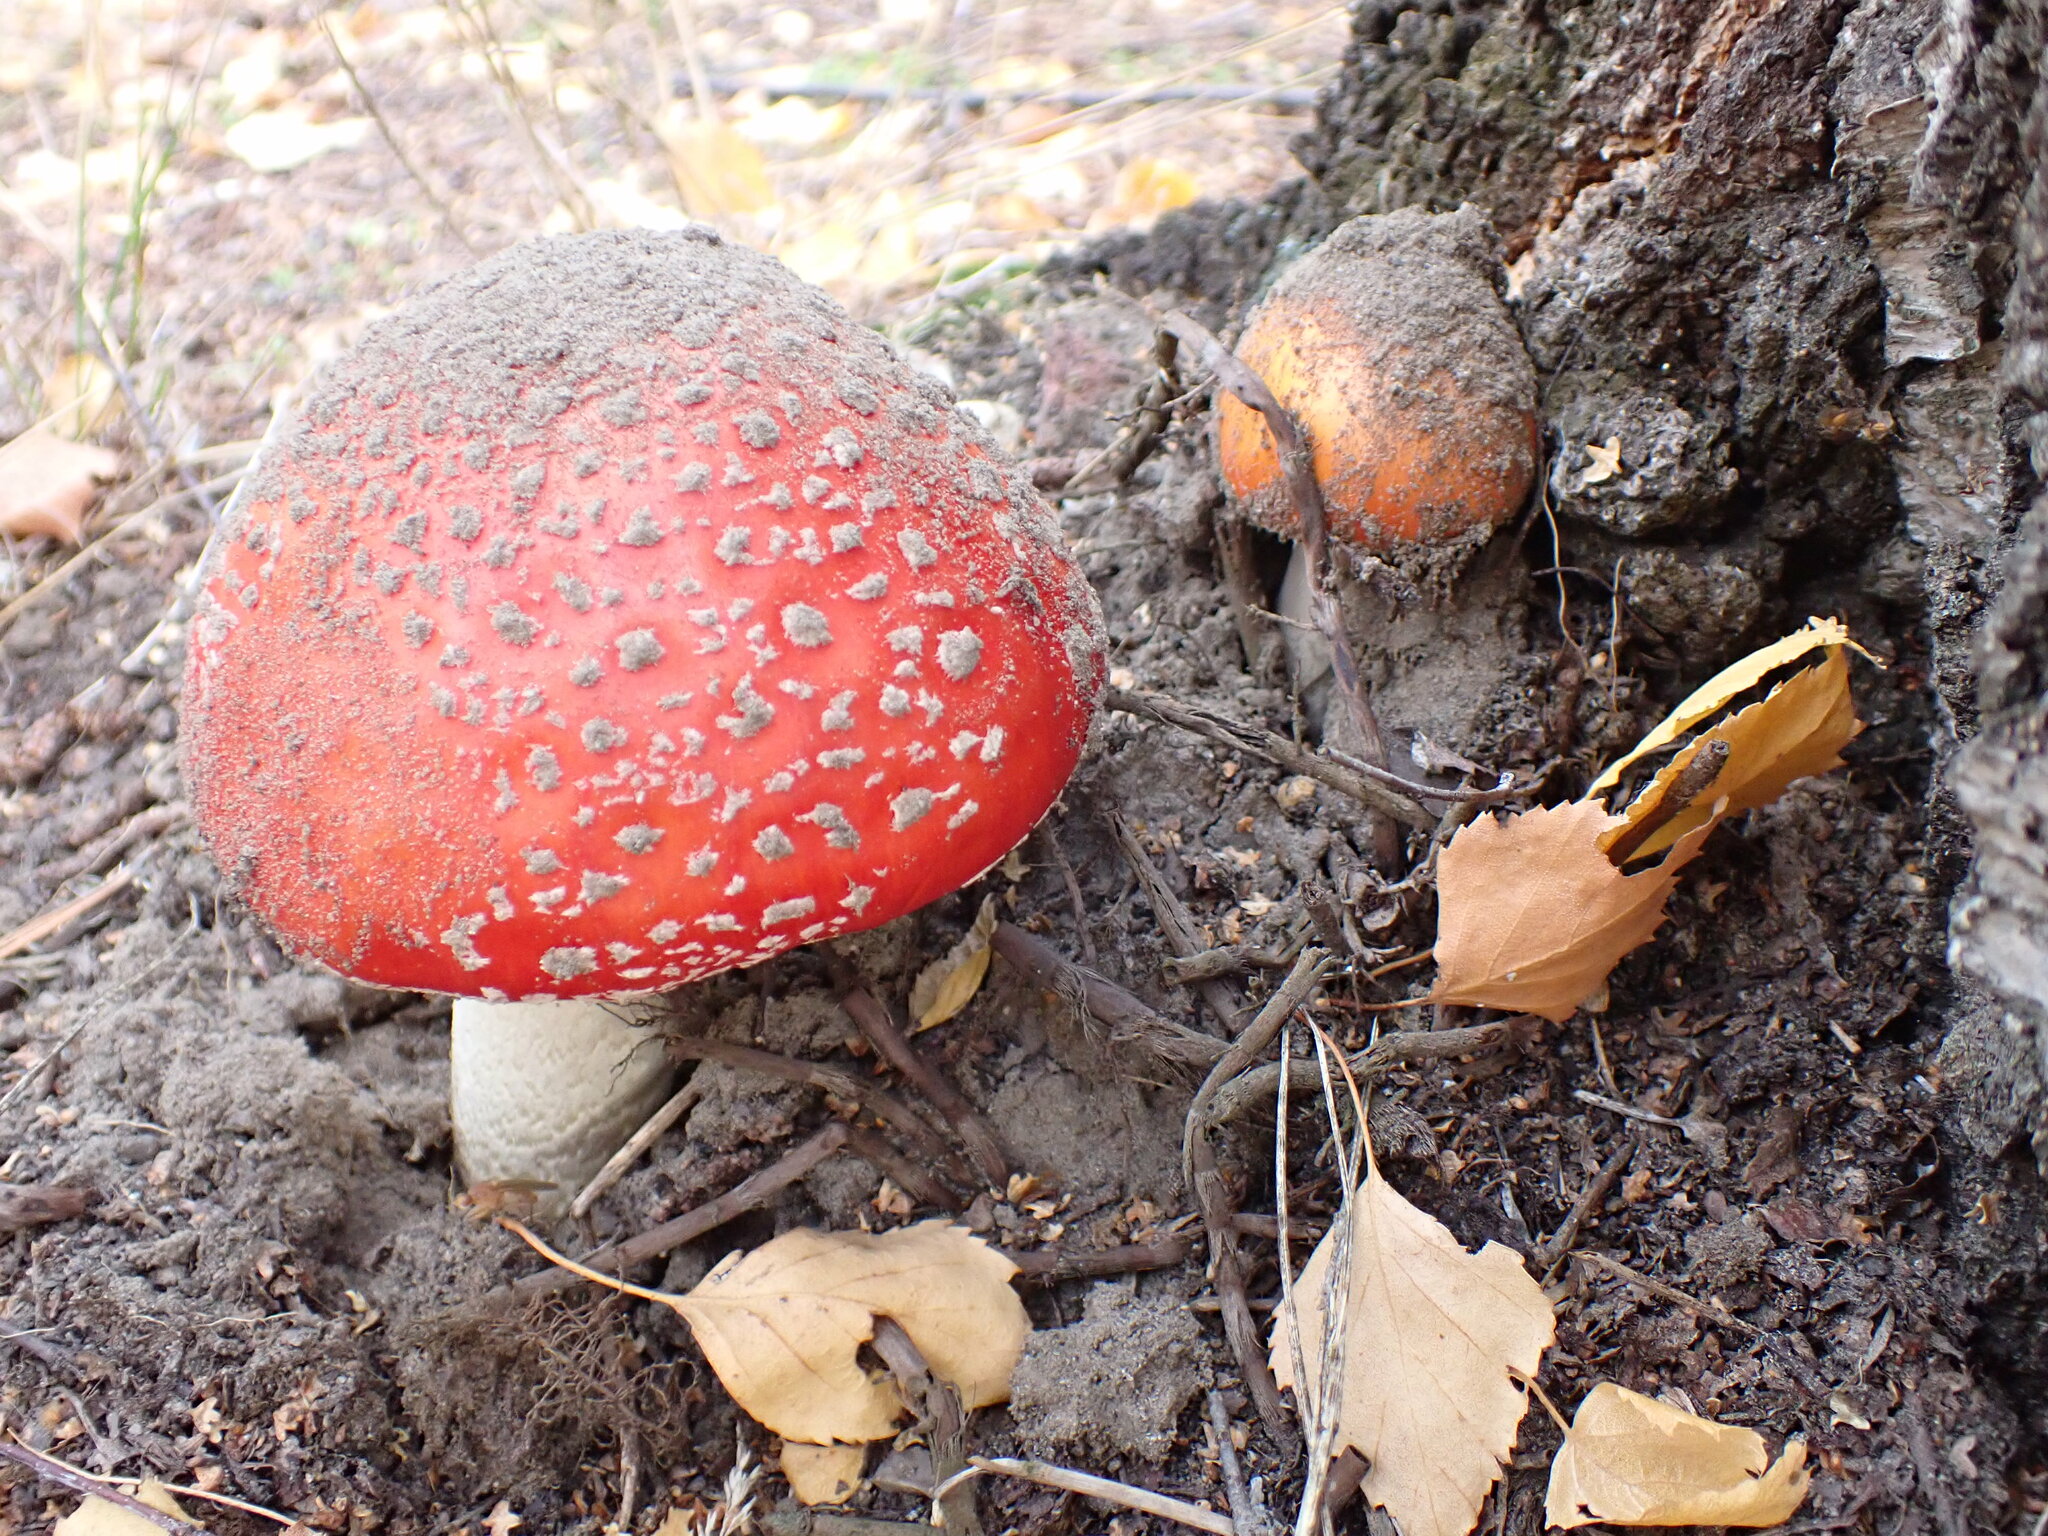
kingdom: Fungi
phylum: Basidiomycota
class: Agaricomycetes
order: Agaricales
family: Amanitaceae
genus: Amanita
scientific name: Amanita muscaria
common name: Fly agaric
